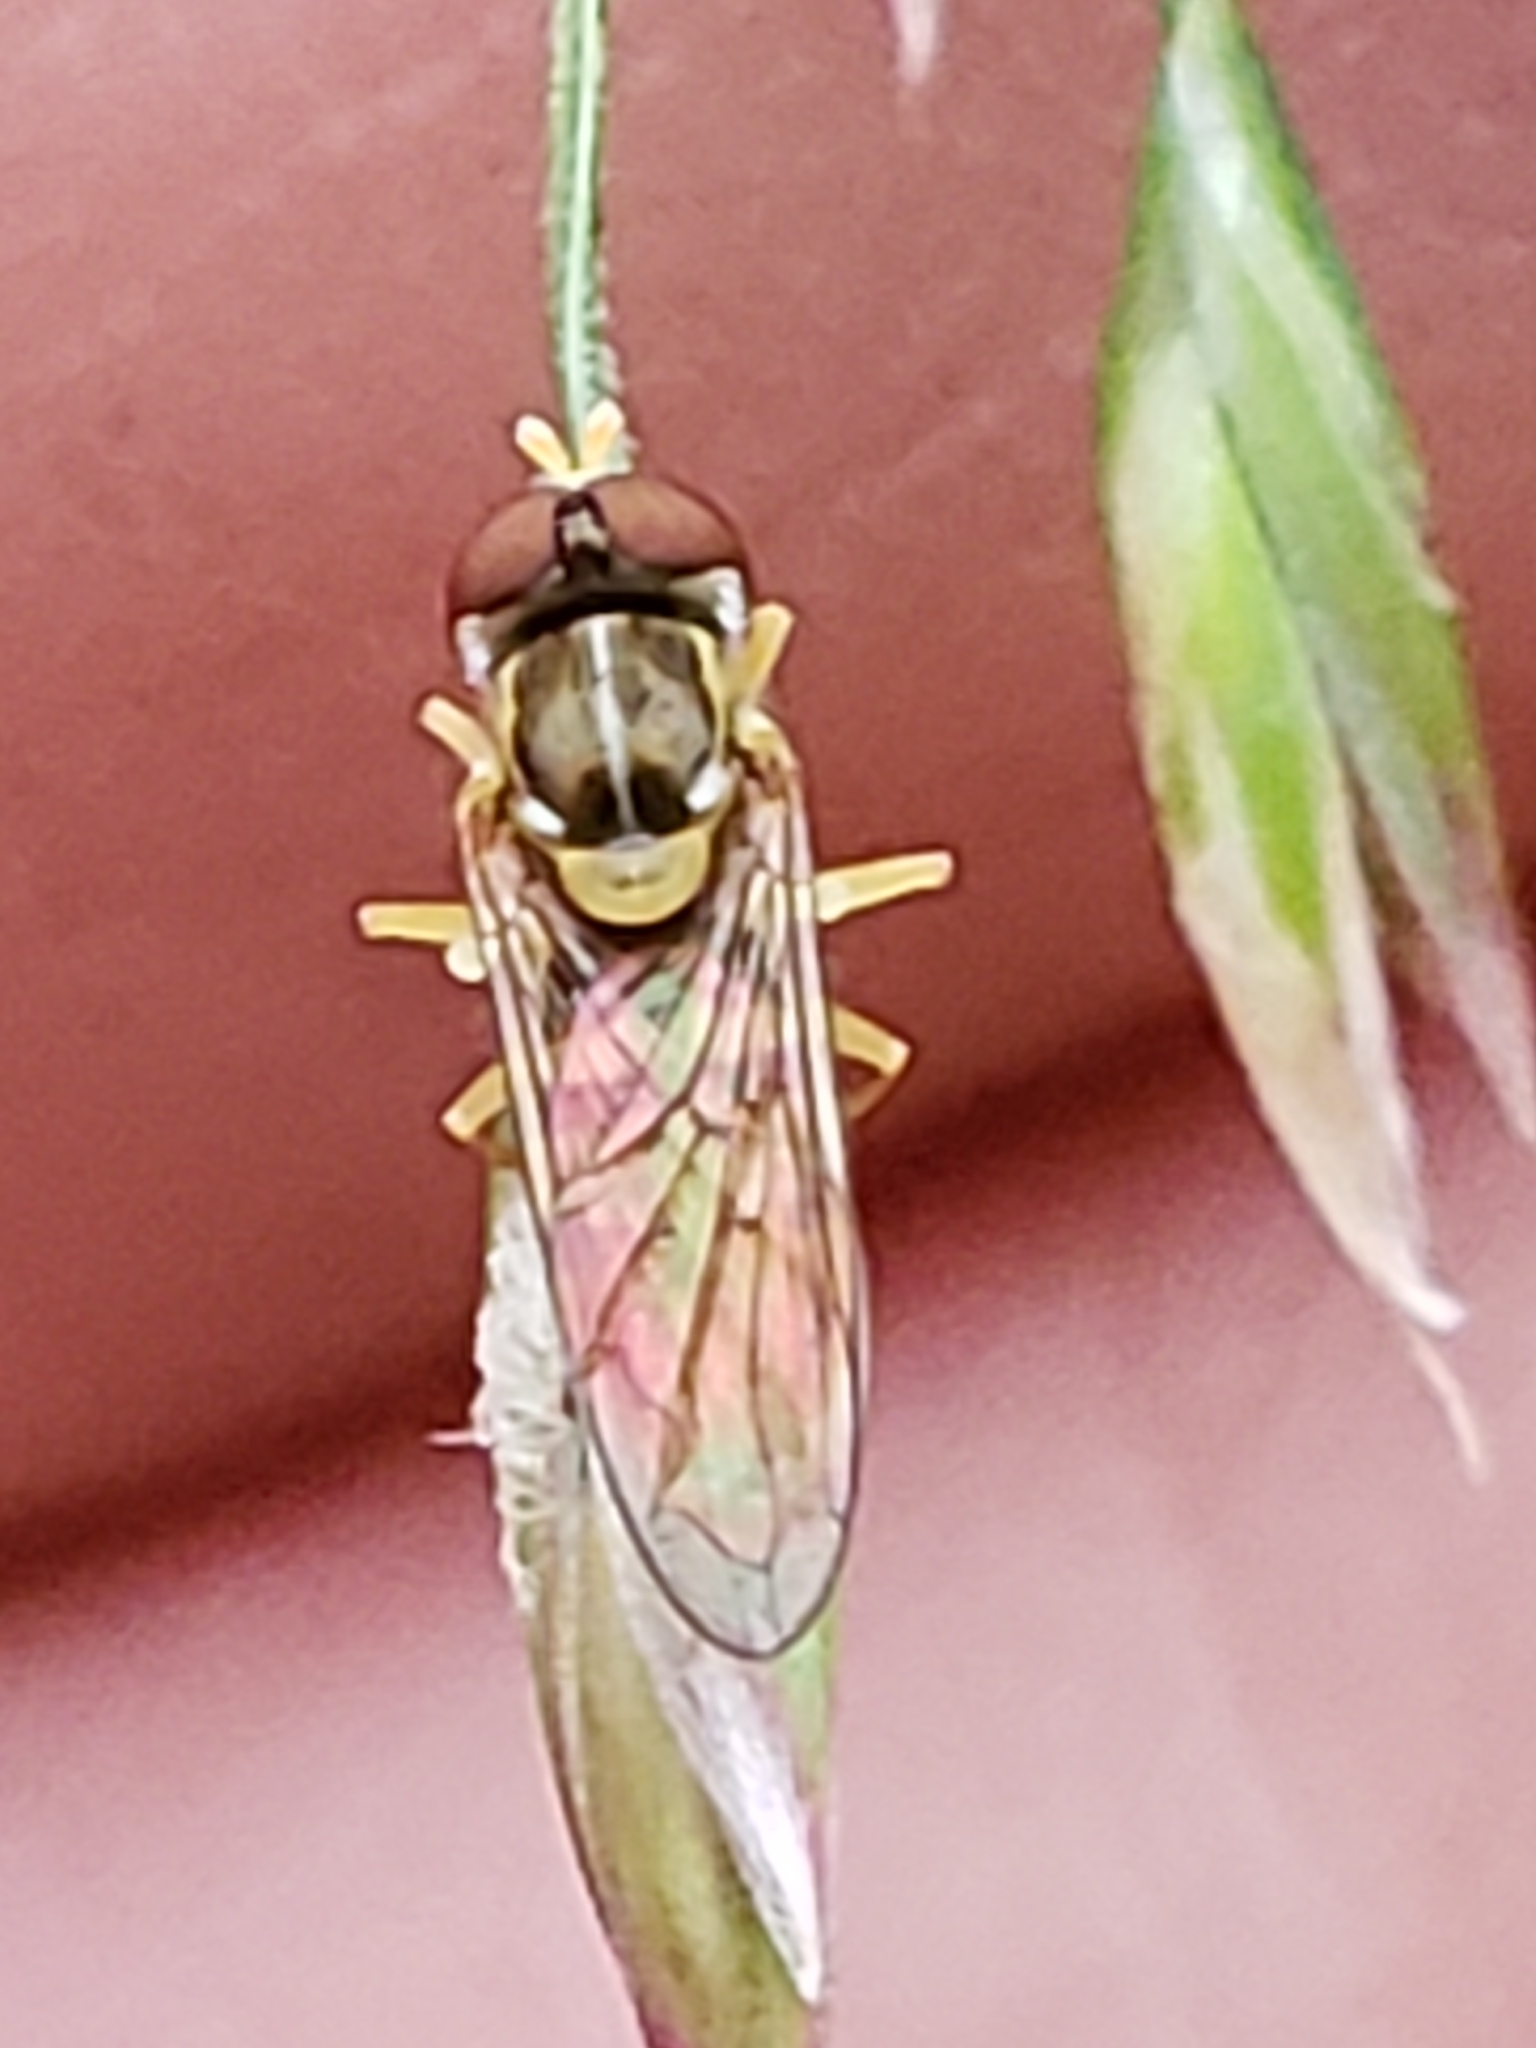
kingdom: Animalia
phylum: Arthropoda
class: Insecta
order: Diptera
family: Syrphidae
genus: Toxomerus
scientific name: Toxomerus marginatus
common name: Syrphid fly
